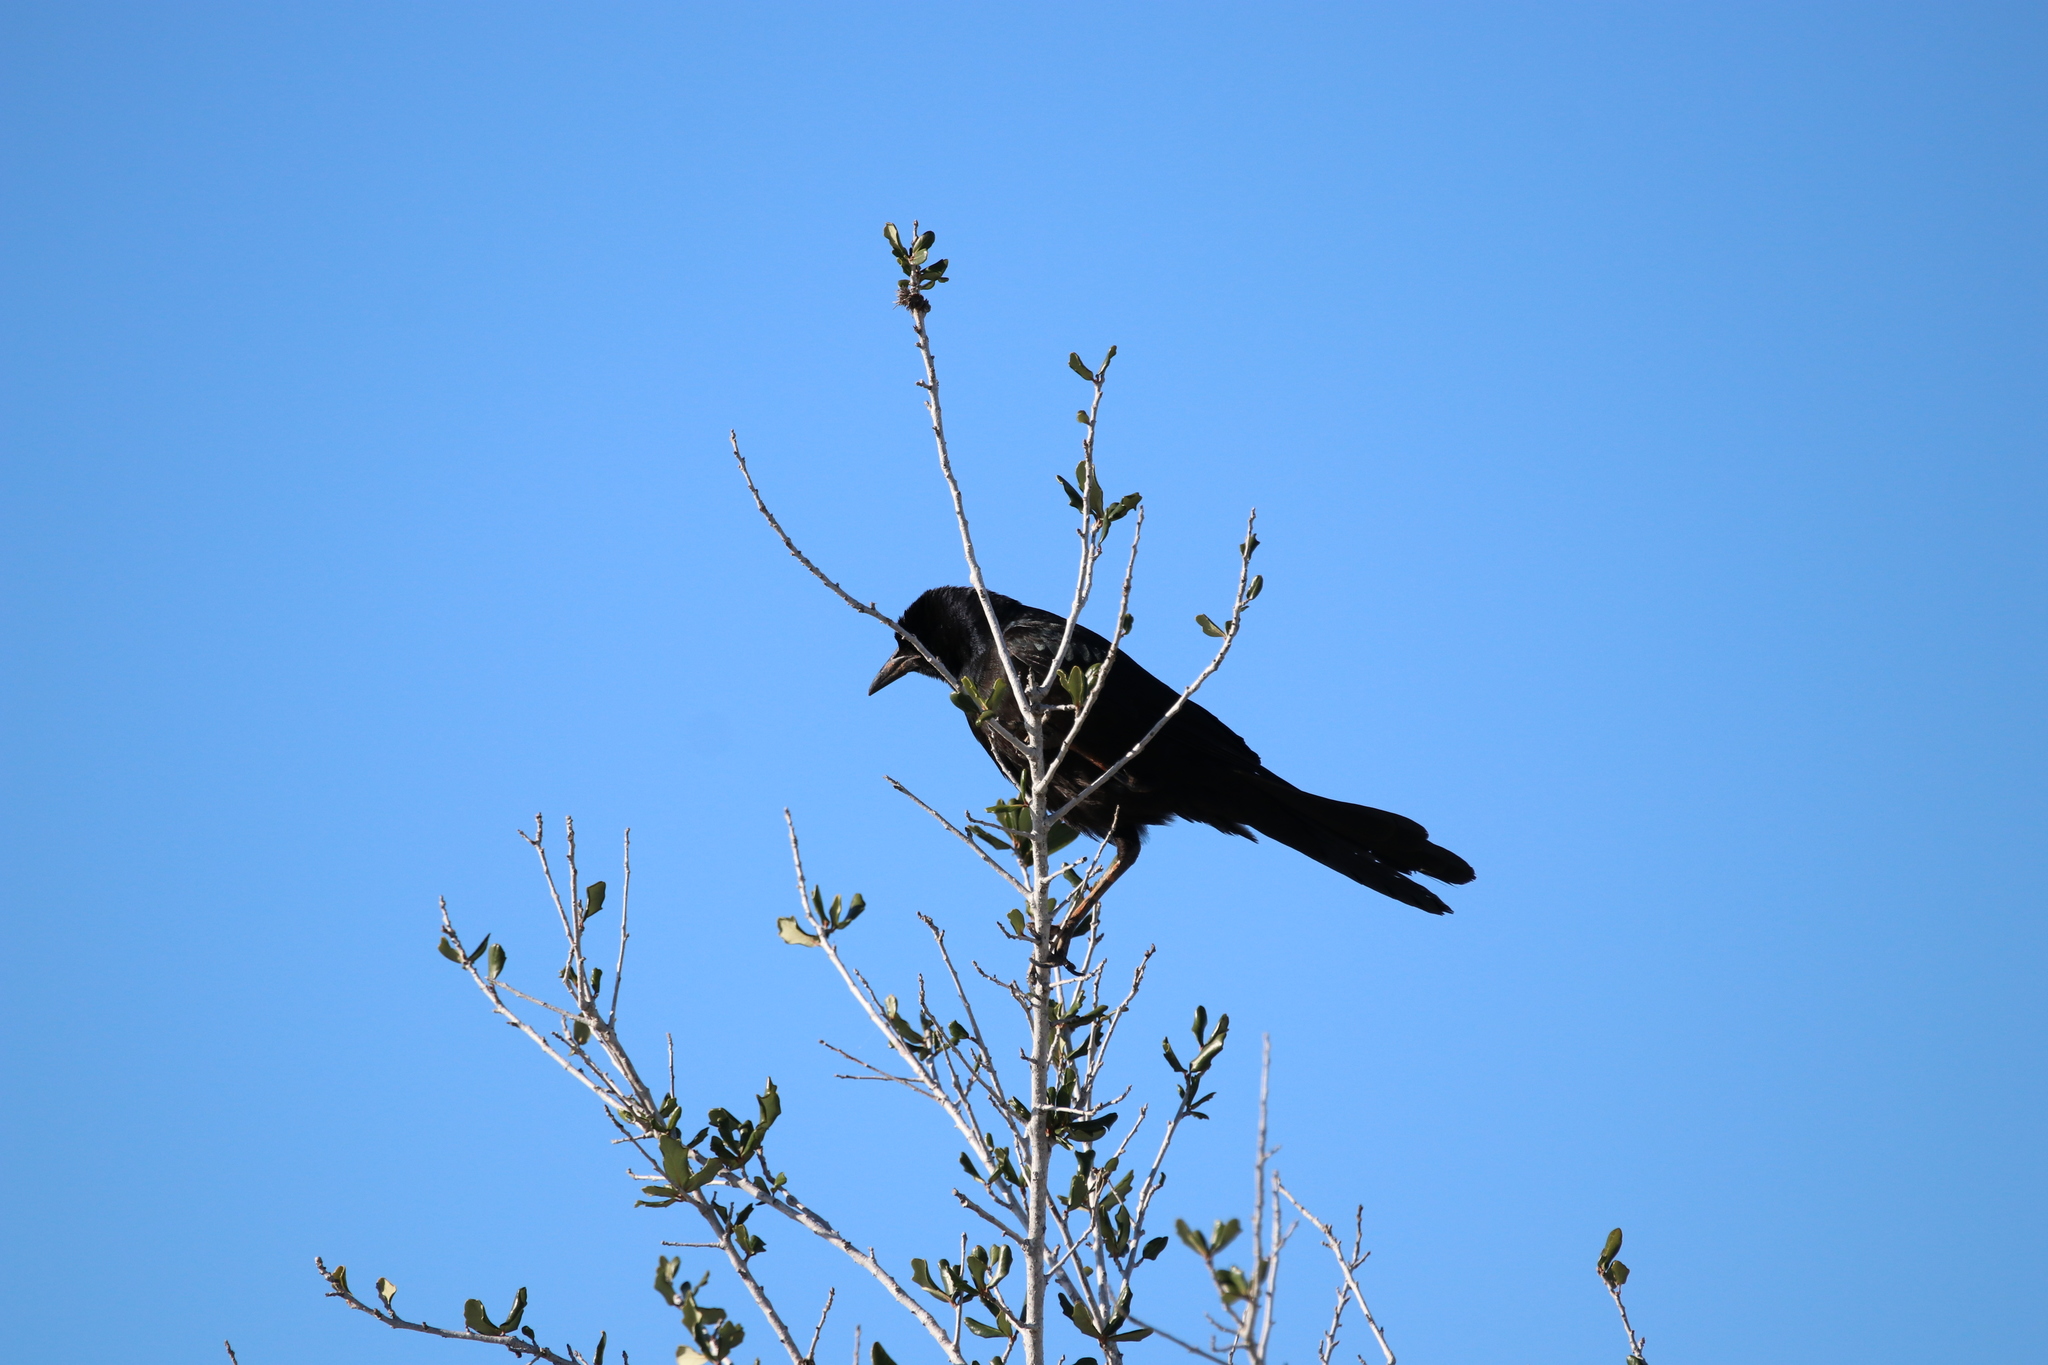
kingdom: Animalia
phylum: Chordata
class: Aves
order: Passeriformes
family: Icteridae
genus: Quiscalus
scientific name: Quiscalus major
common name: Boat-tailed grackle
